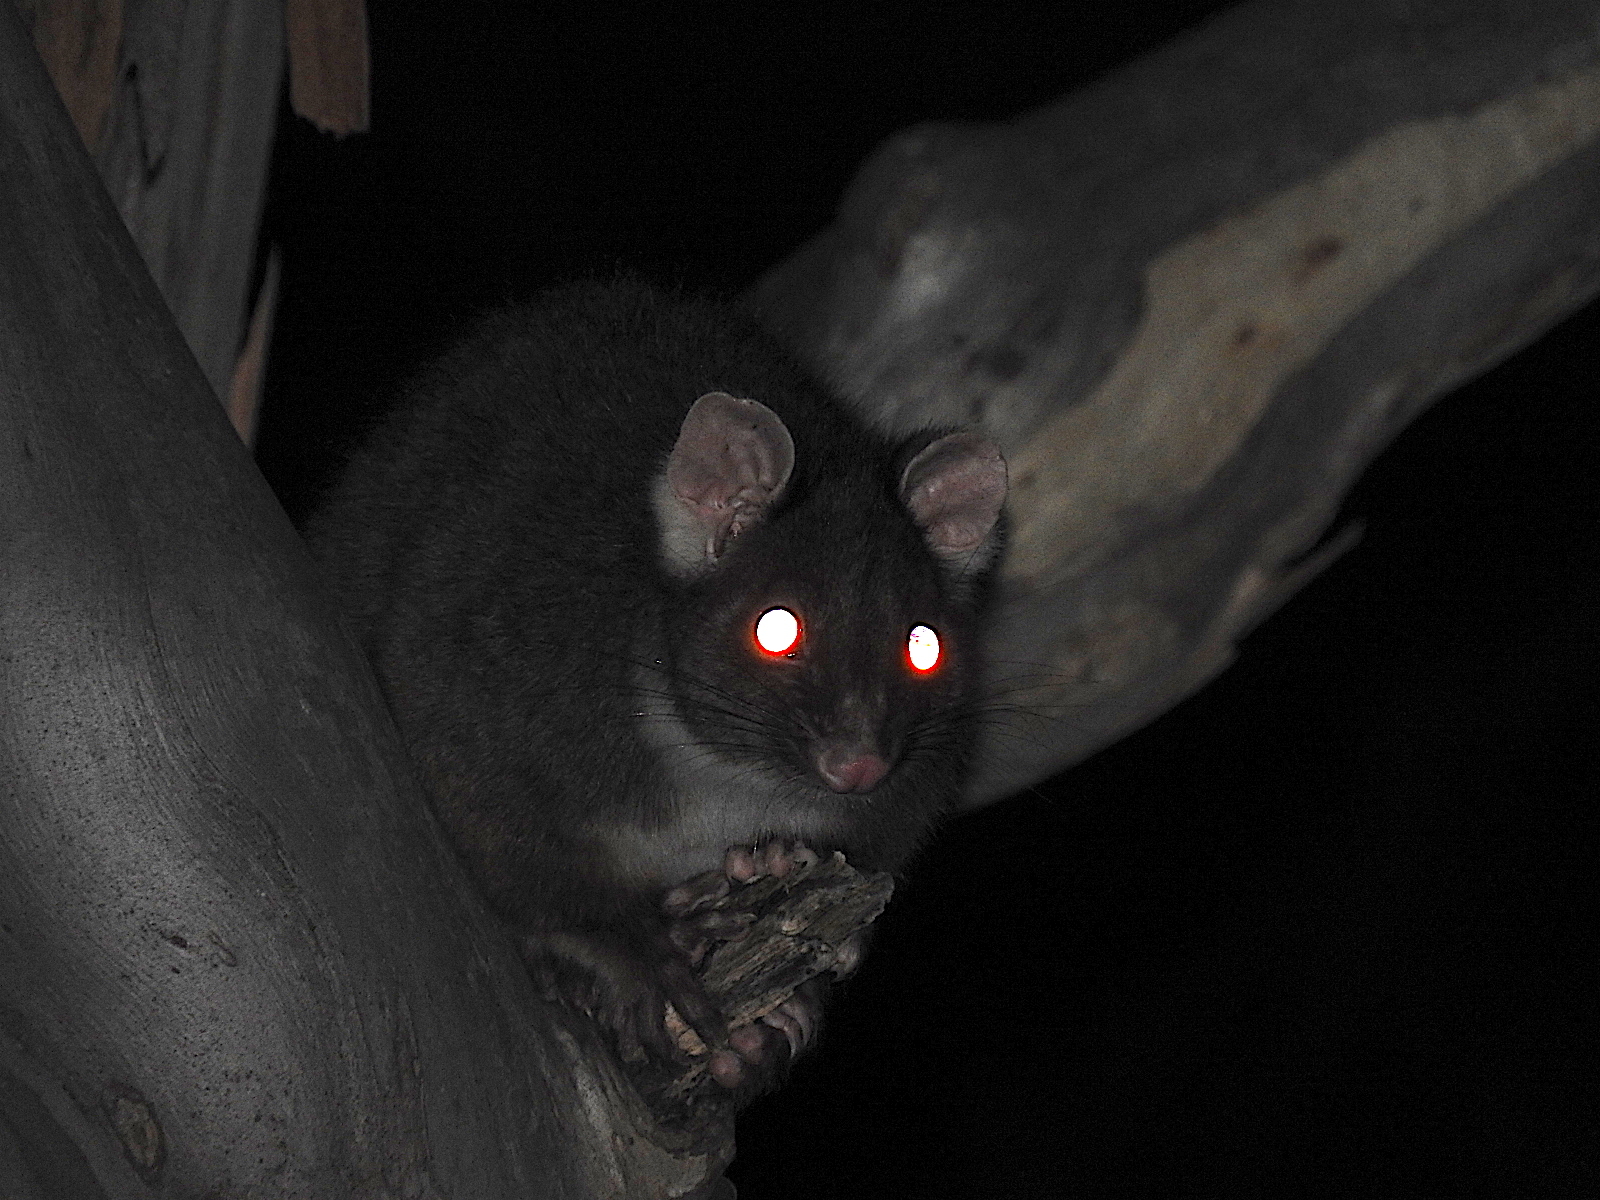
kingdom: Animalia
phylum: Chordata
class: Mammalia
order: Diprotodontia
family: Pseudocheiridae
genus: Pseudocheirus
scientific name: Pseudocheirus peregrinus
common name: Common ringtail possum
